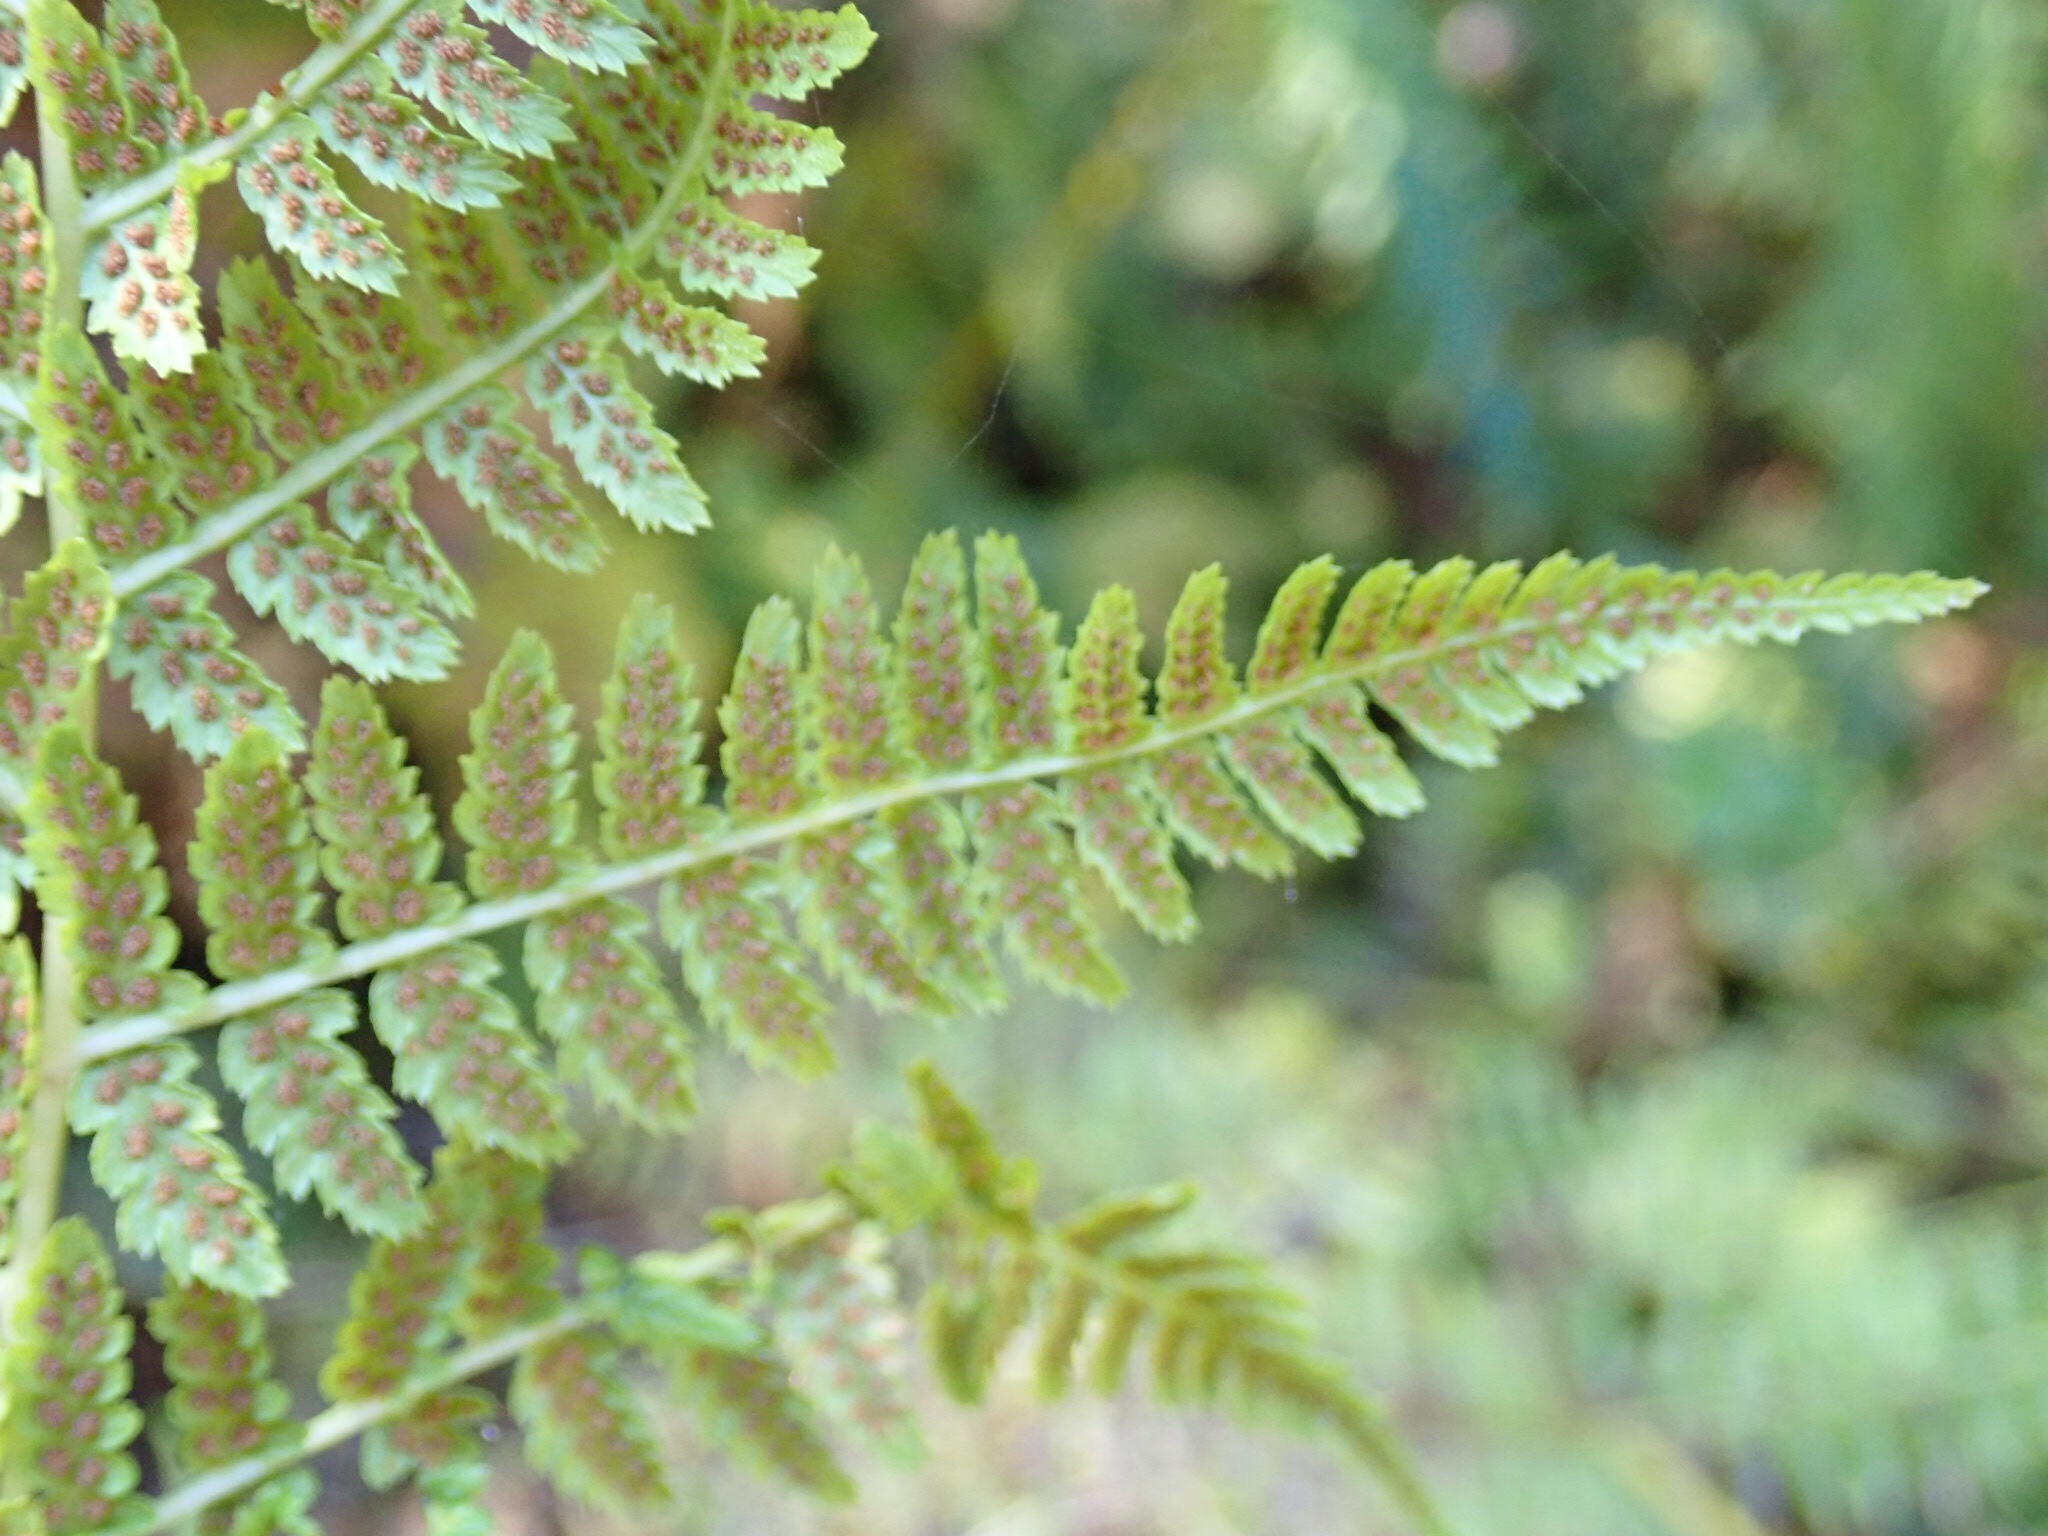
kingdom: Plantae
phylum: Tracheophyta
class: Polypodiopsida
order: Polypodiales
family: Athyriaceae
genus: Athyrium
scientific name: Athyrium filix-femina
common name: Lady fern
